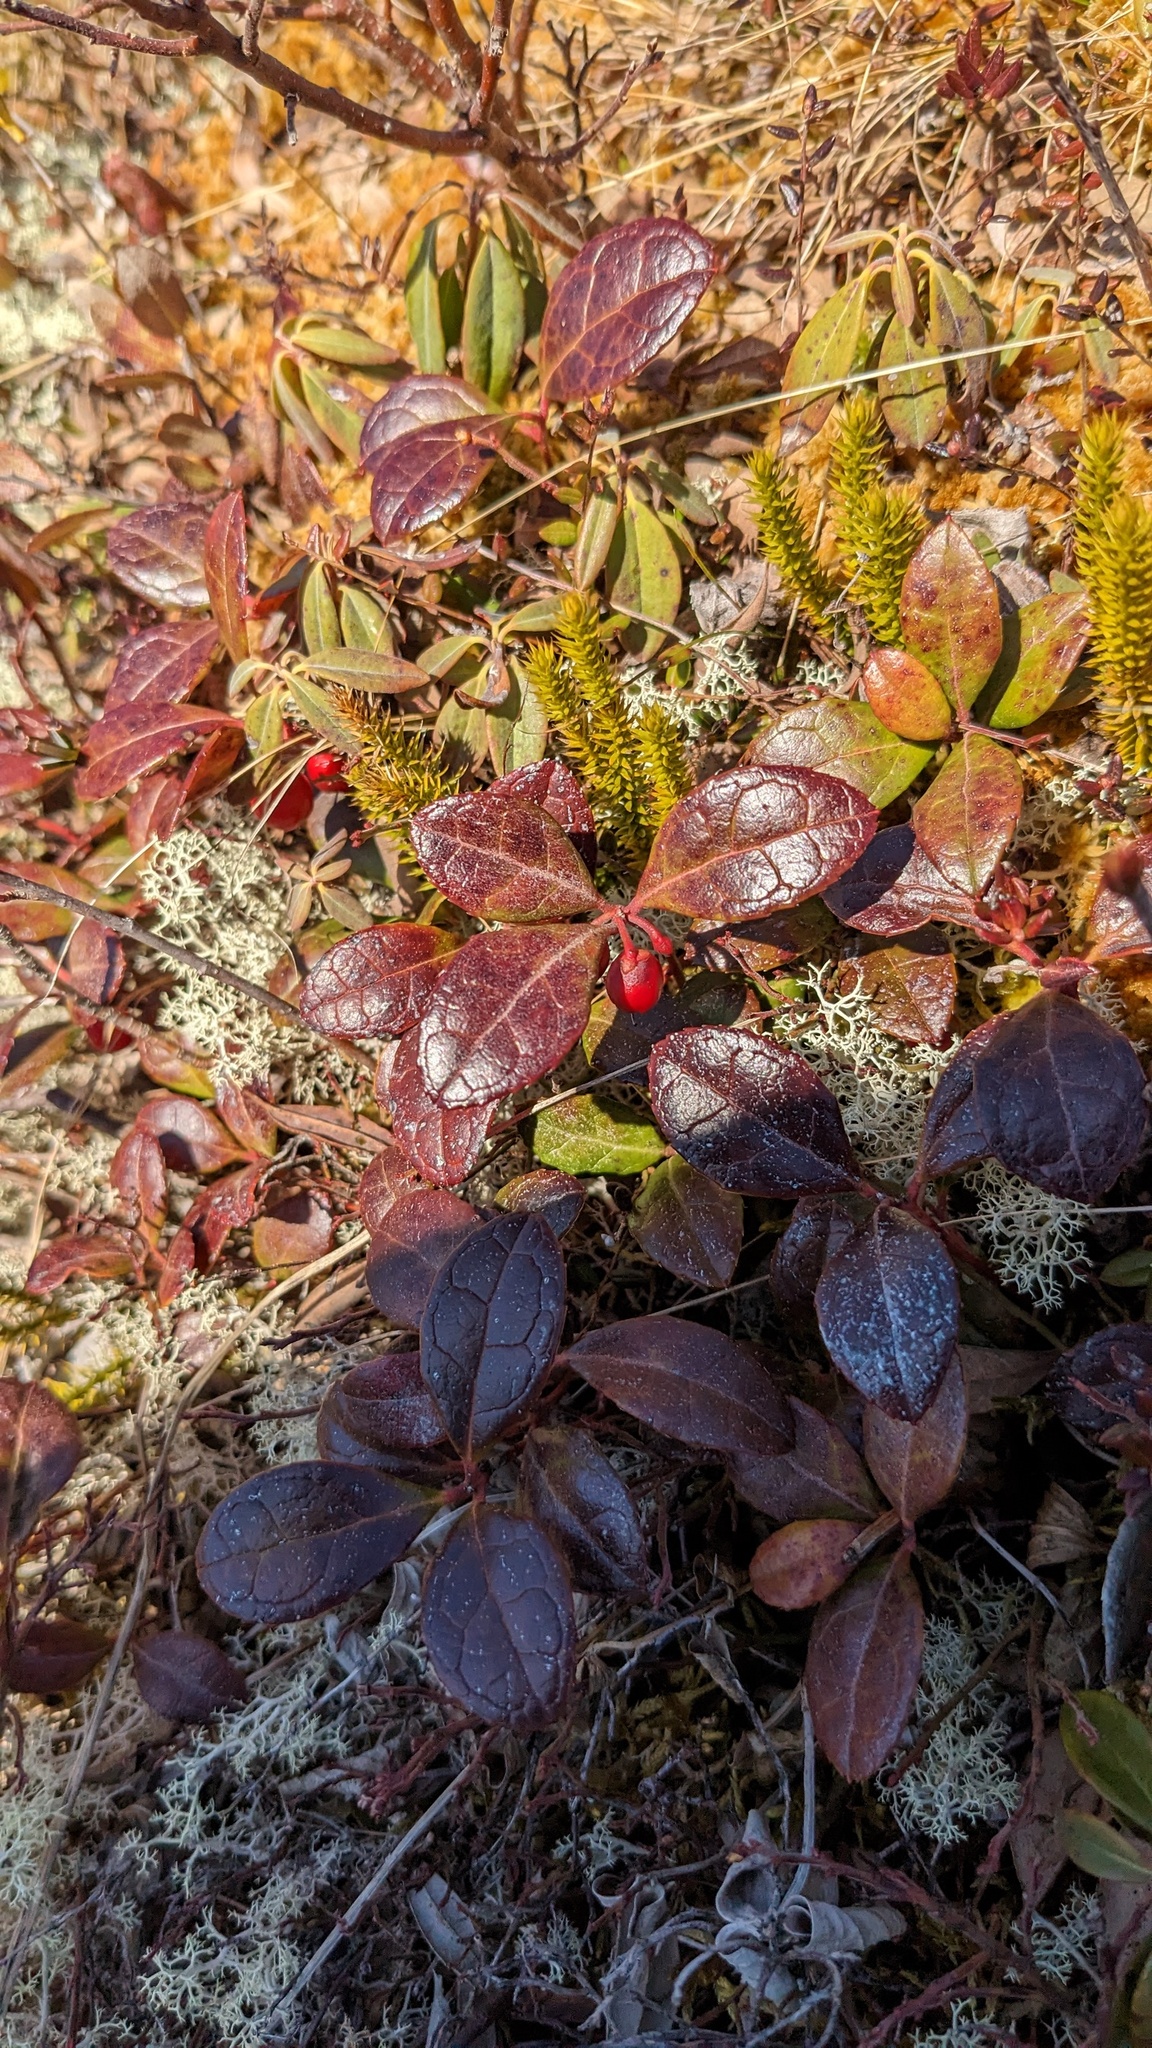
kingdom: Plantae
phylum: Tracheophyta
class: Magnoliopsida
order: Ericales
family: Ericaceae
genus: Gaultheria
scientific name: Gaultheria procumbens
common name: Checkerberry
